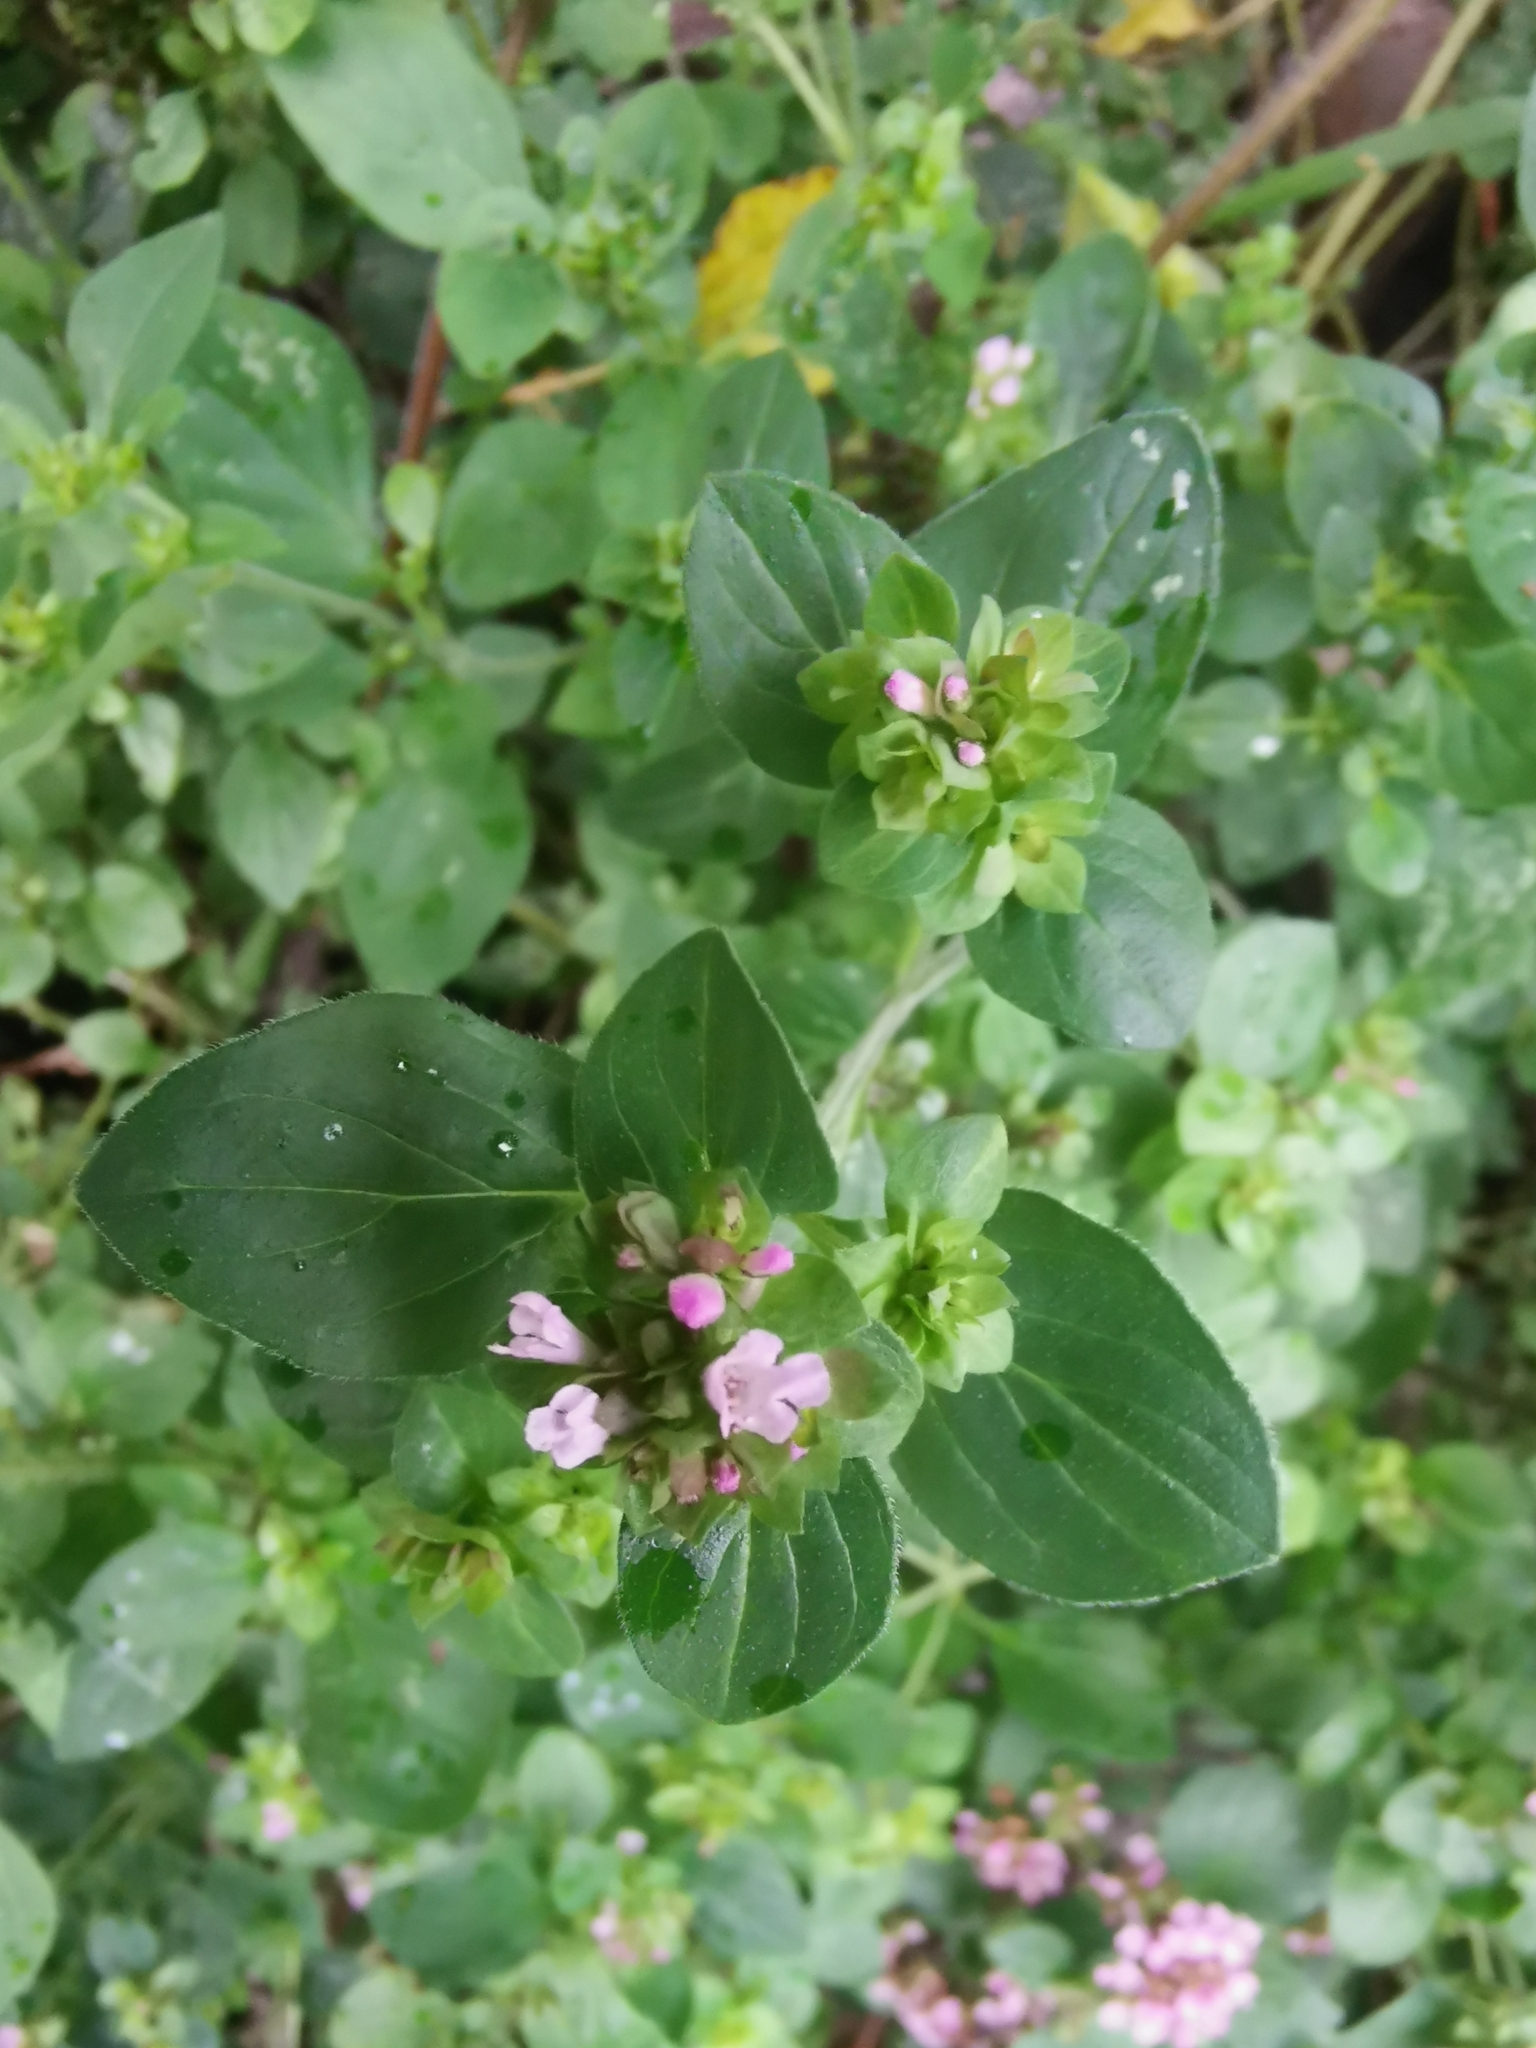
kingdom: Plantae
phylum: Tracheophyta
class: Magnoliopsida
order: Lamiales
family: Lamiaceae
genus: Origanum
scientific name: Origanum vulgare
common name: Wild marjoram
